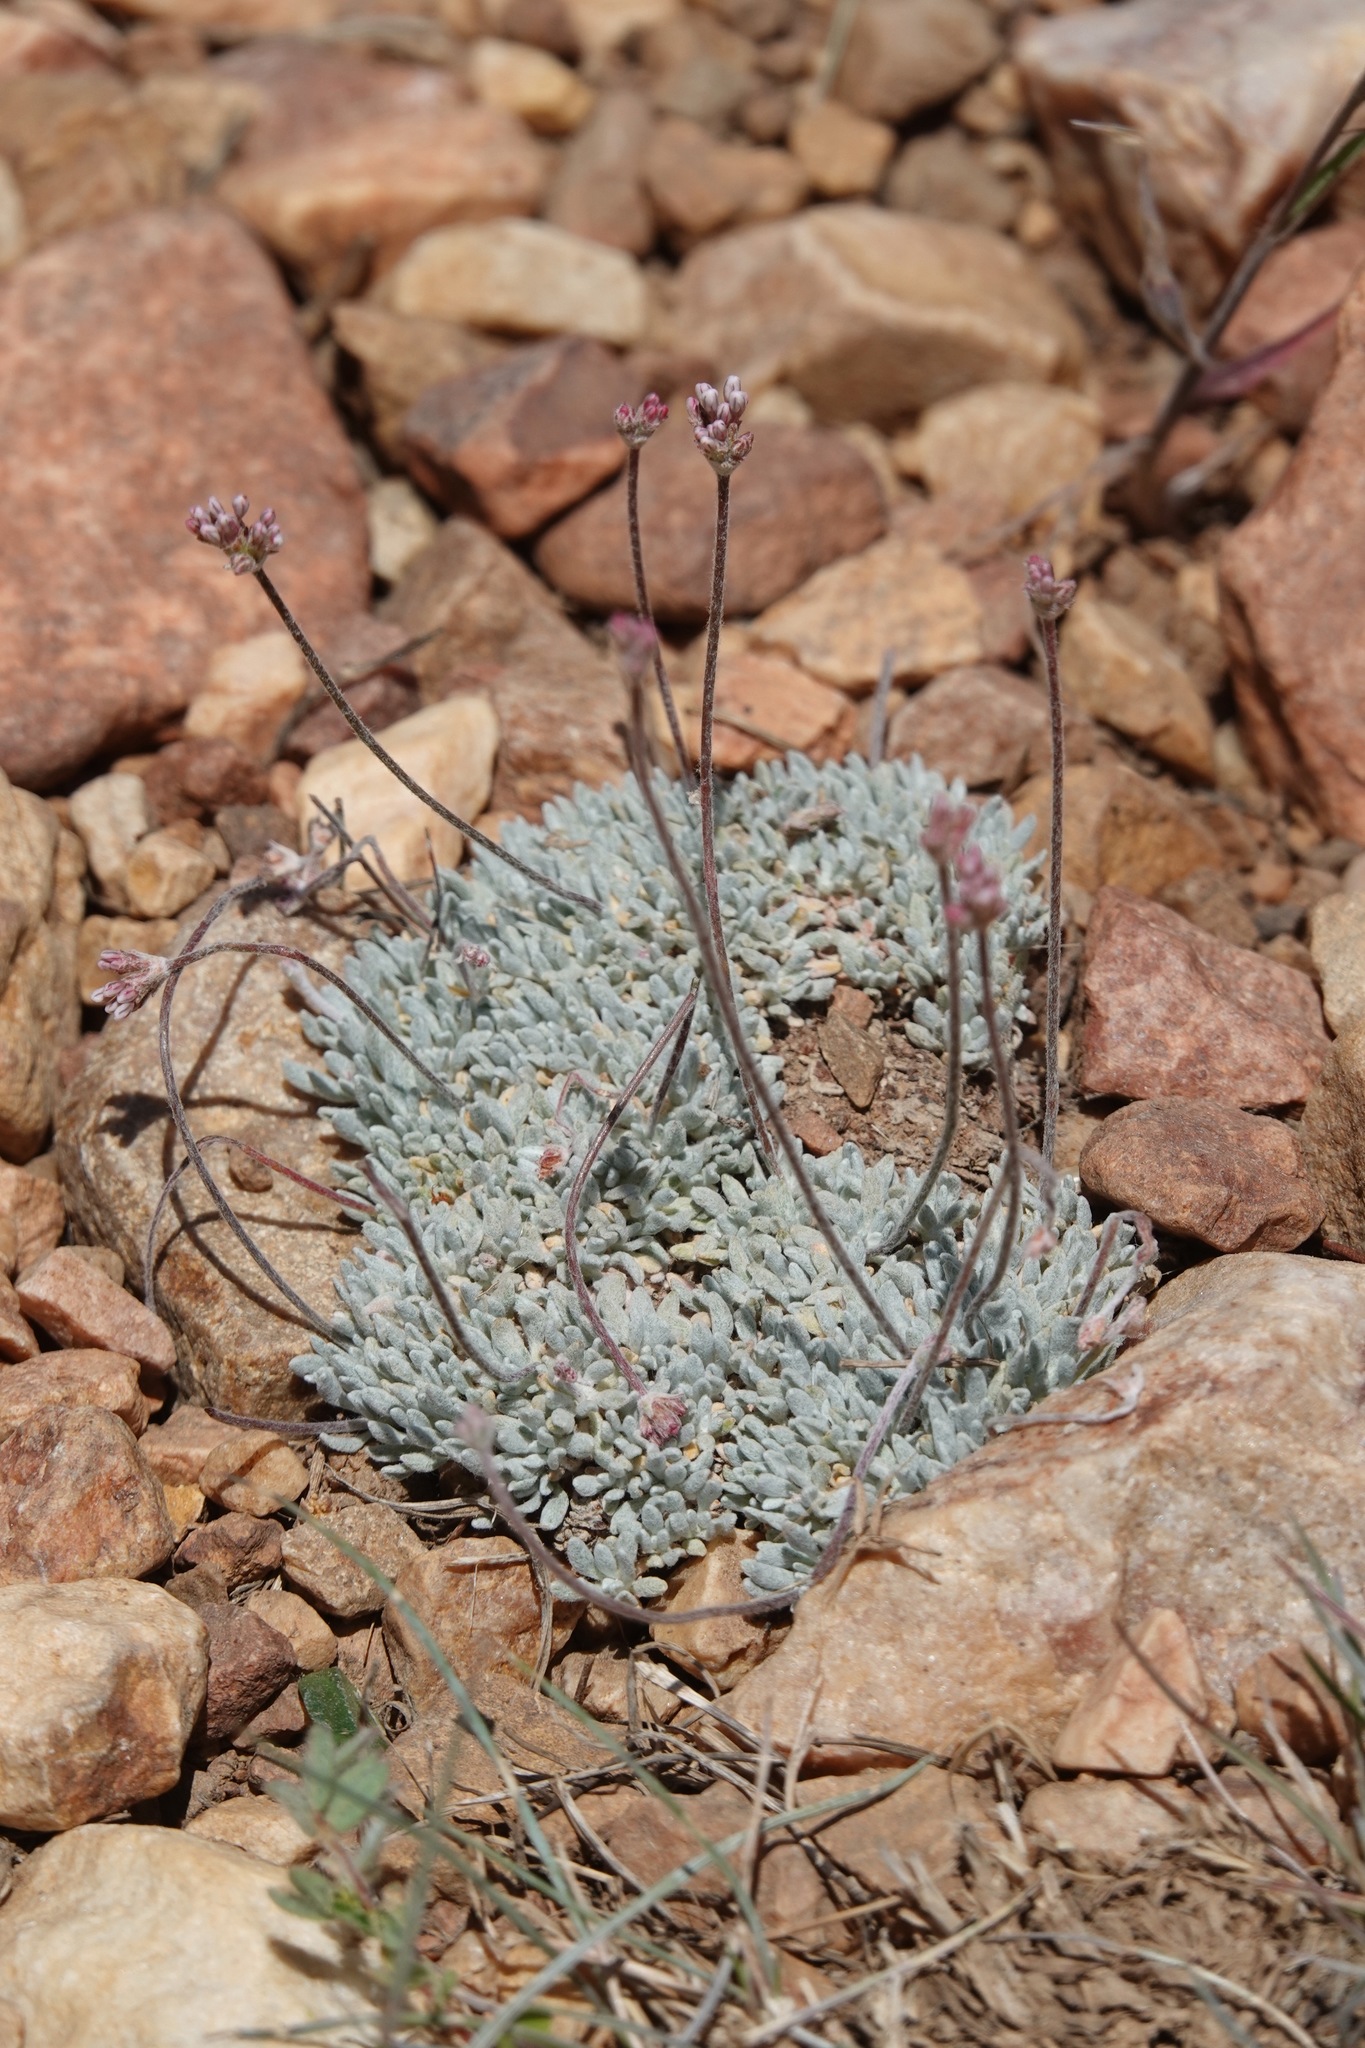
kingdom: Plantae
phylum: Tracheophyta
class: Magnoliopsida
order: Caryophyllales
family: Polygonaceae
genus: Eriogonum
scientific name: Eriogonum kennedyi
